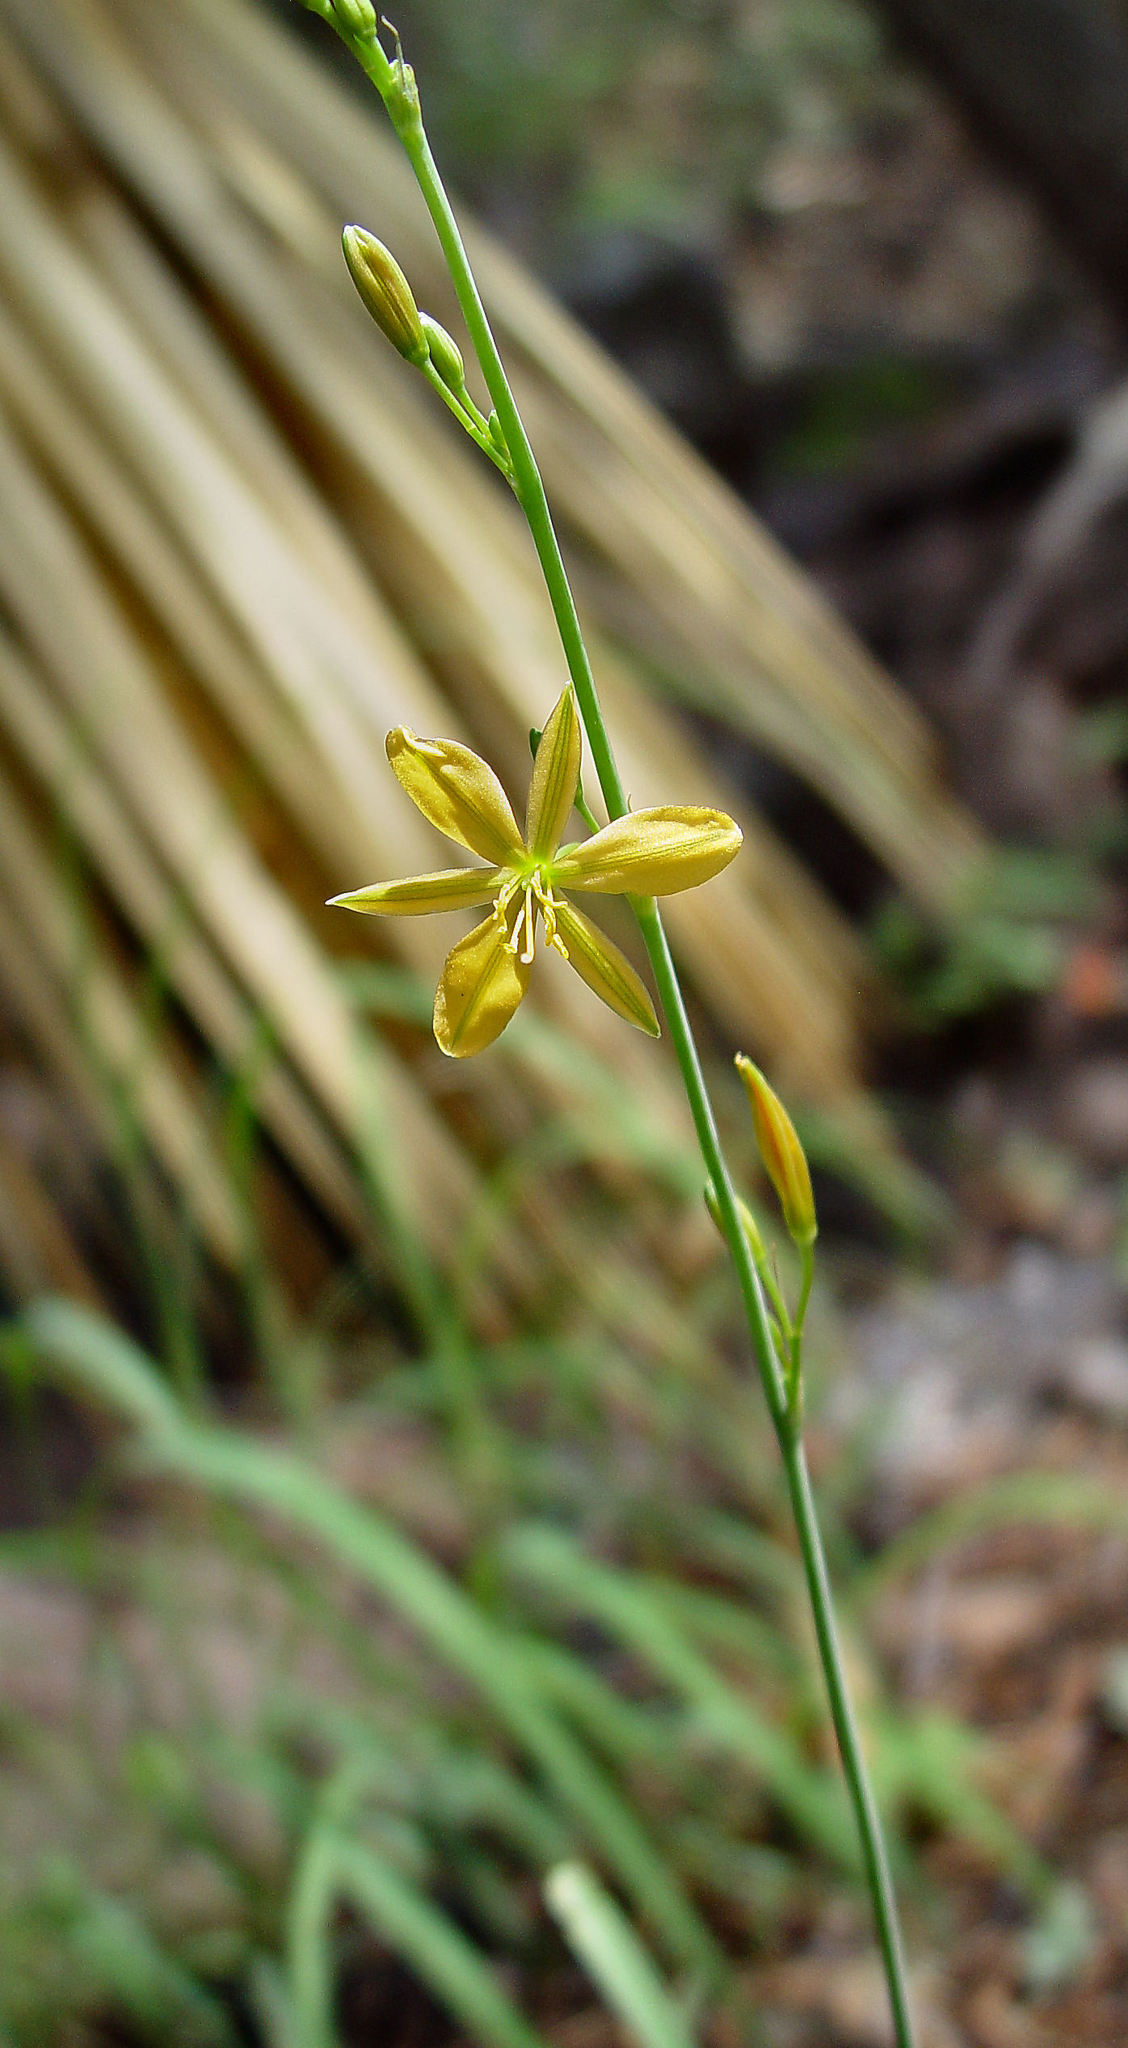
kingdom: Plantae
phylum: Tracheophyta
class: Liliopsida
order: Asparagales
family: Asparagaceae
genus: Echeandia
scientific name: Echeandia flavescens
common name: Amberlily
